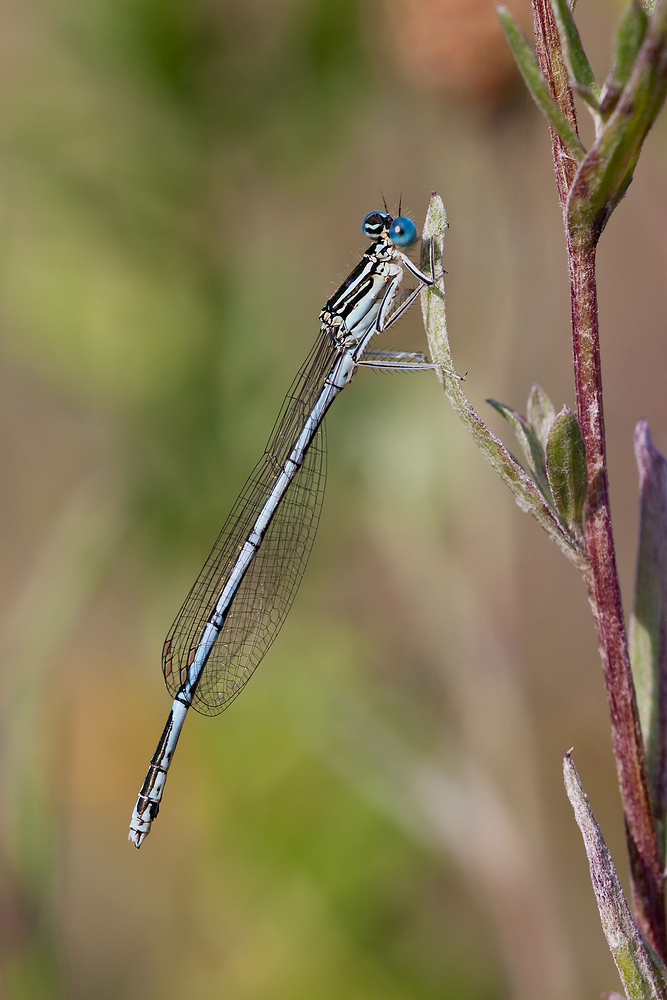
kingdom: Animalia
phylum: Arthropoda
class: Insecta
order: Odonata
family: Platycnemididae
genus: Platycnemis
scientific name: Platycnemis pennipes
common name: White-legged damselfly
